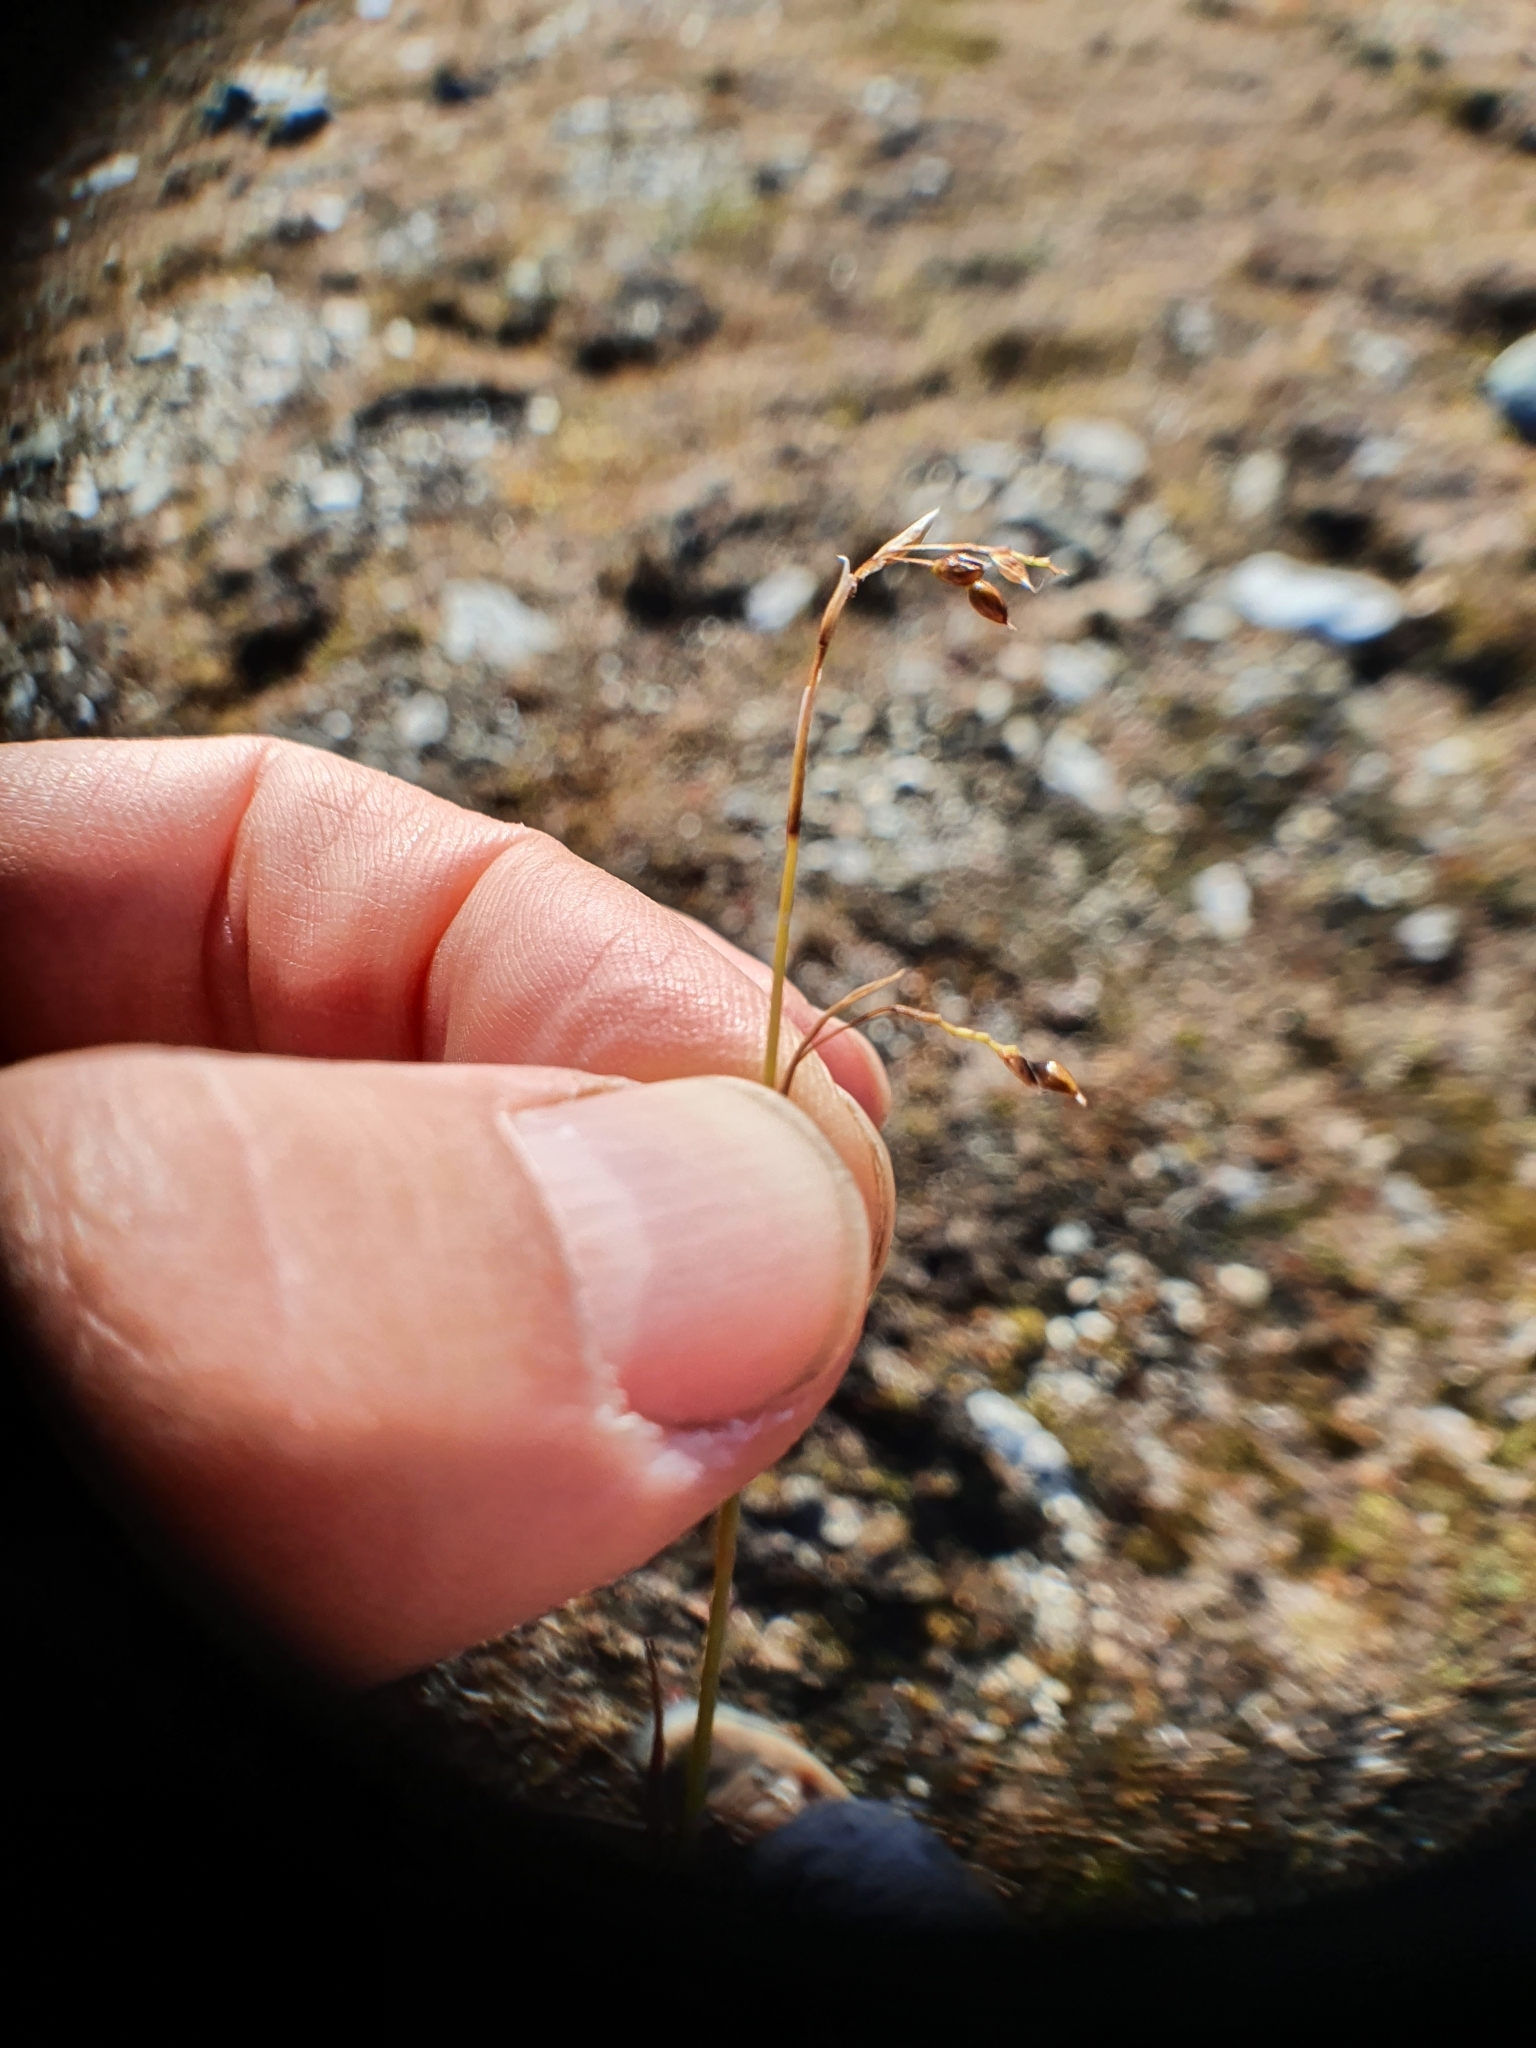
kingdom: Plantae
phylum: Tracheophyta
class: Liliopsida
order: Poales
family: Cyperaceae
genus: Carex
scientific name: Carex capillaris
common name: Hair sedge
